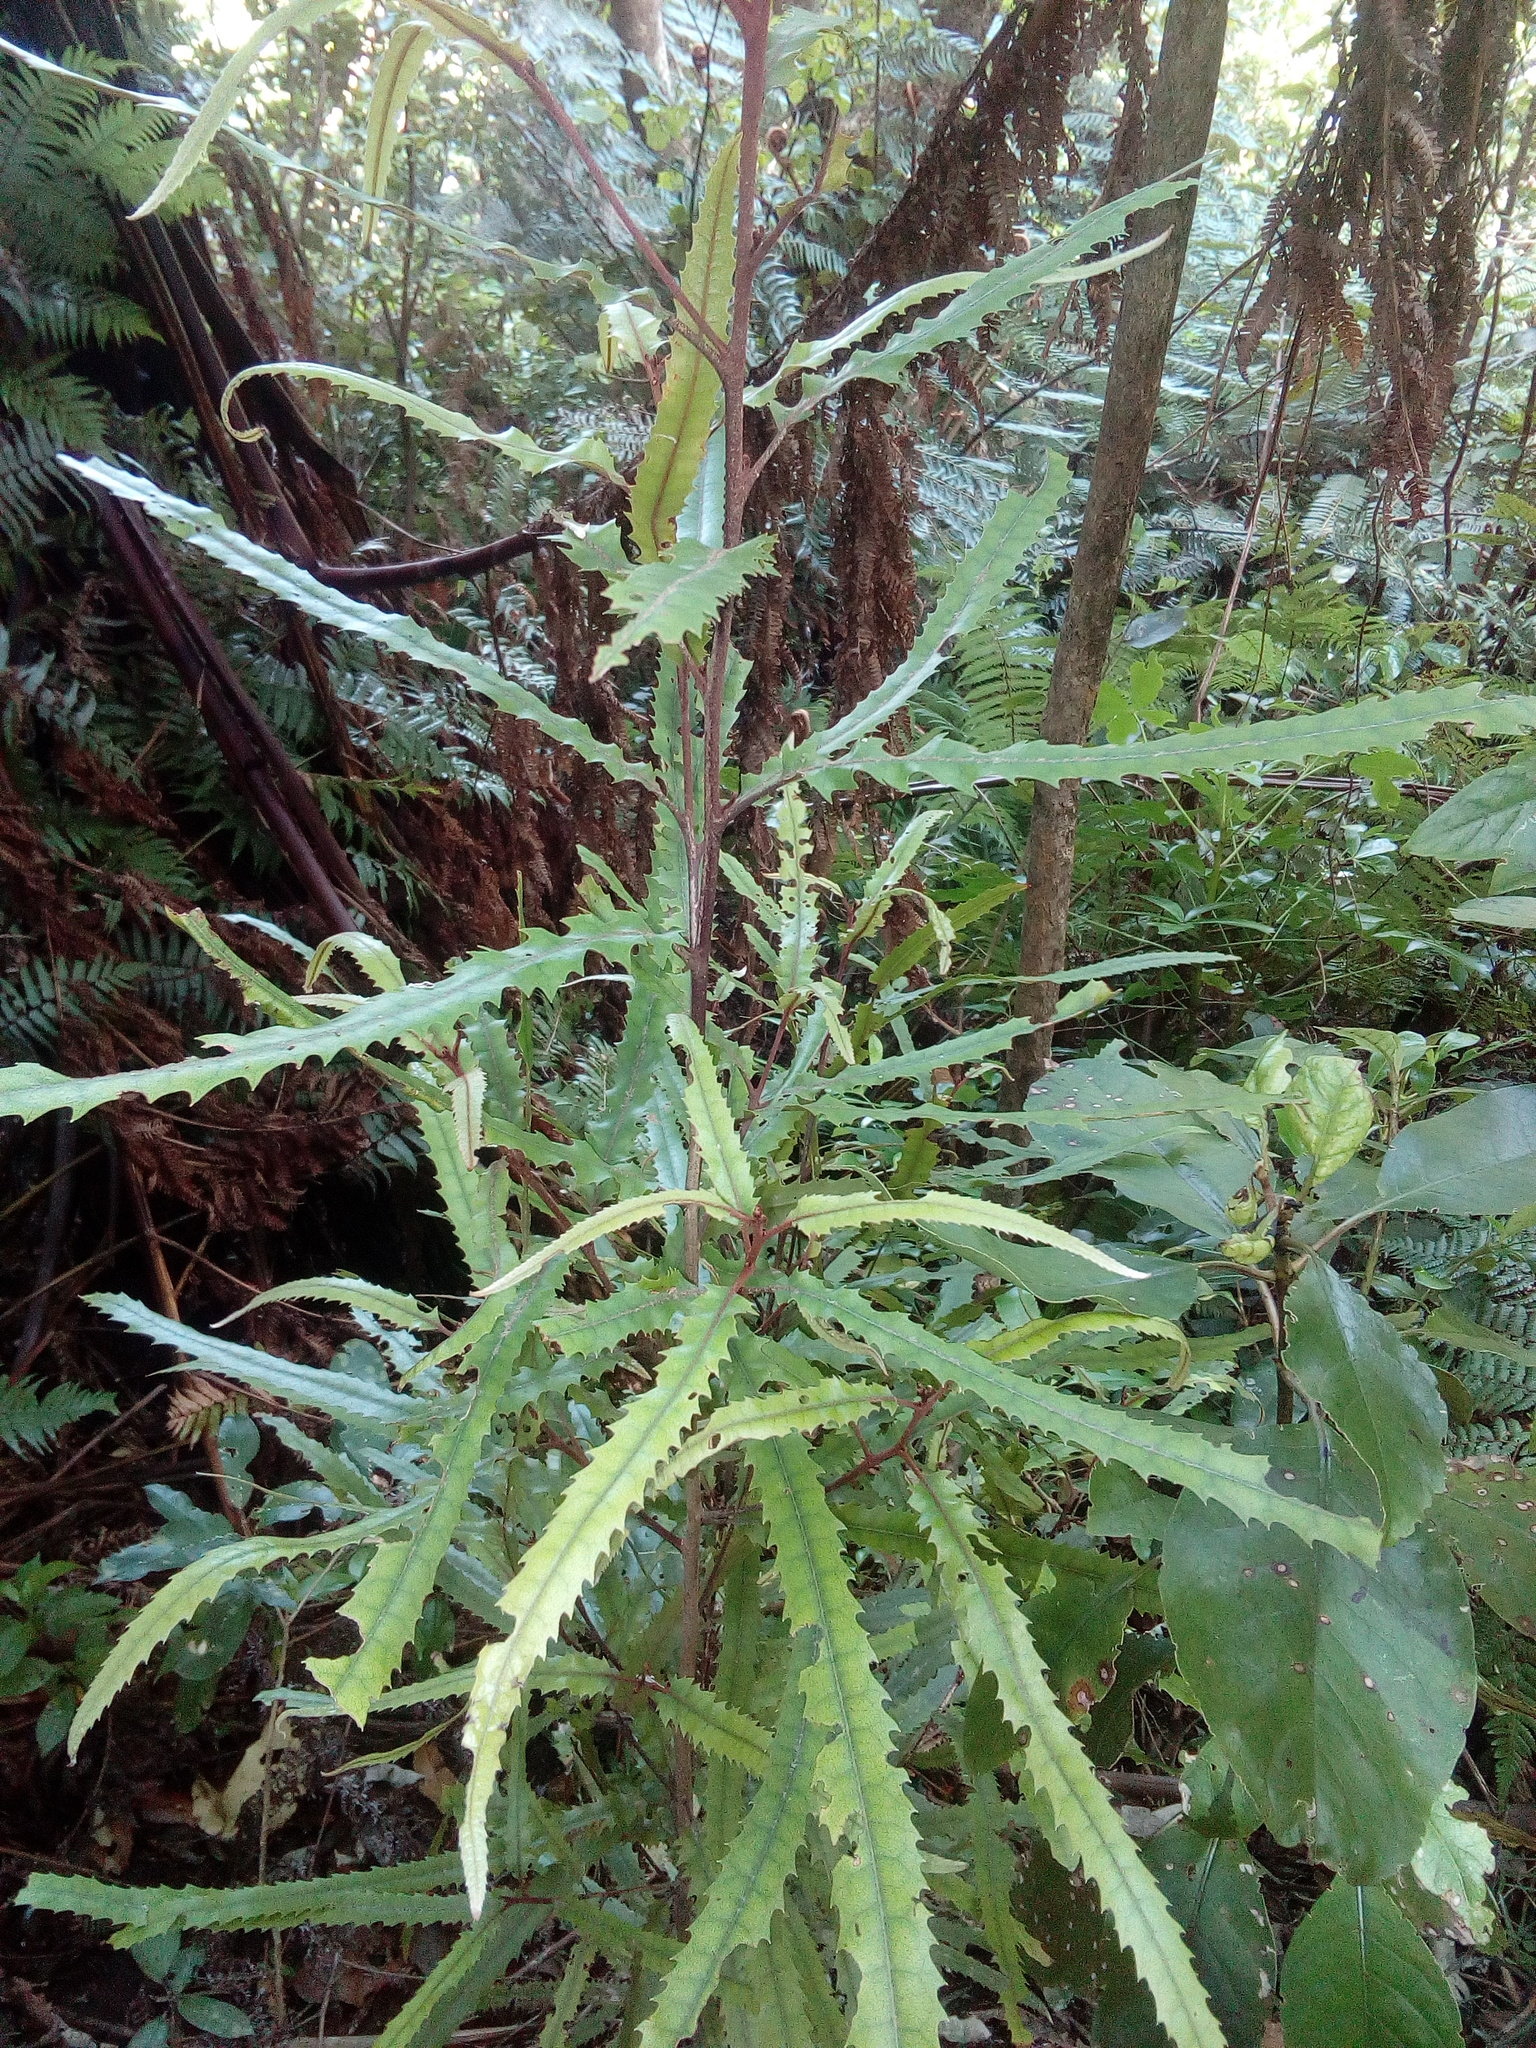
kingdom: Plantae
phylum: Tracheophyta
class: Magnoliopsida
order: Proteales
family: Proteaceae
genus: Knightia
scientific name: Knightia excelsa
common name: New zealand-honeysuckle
